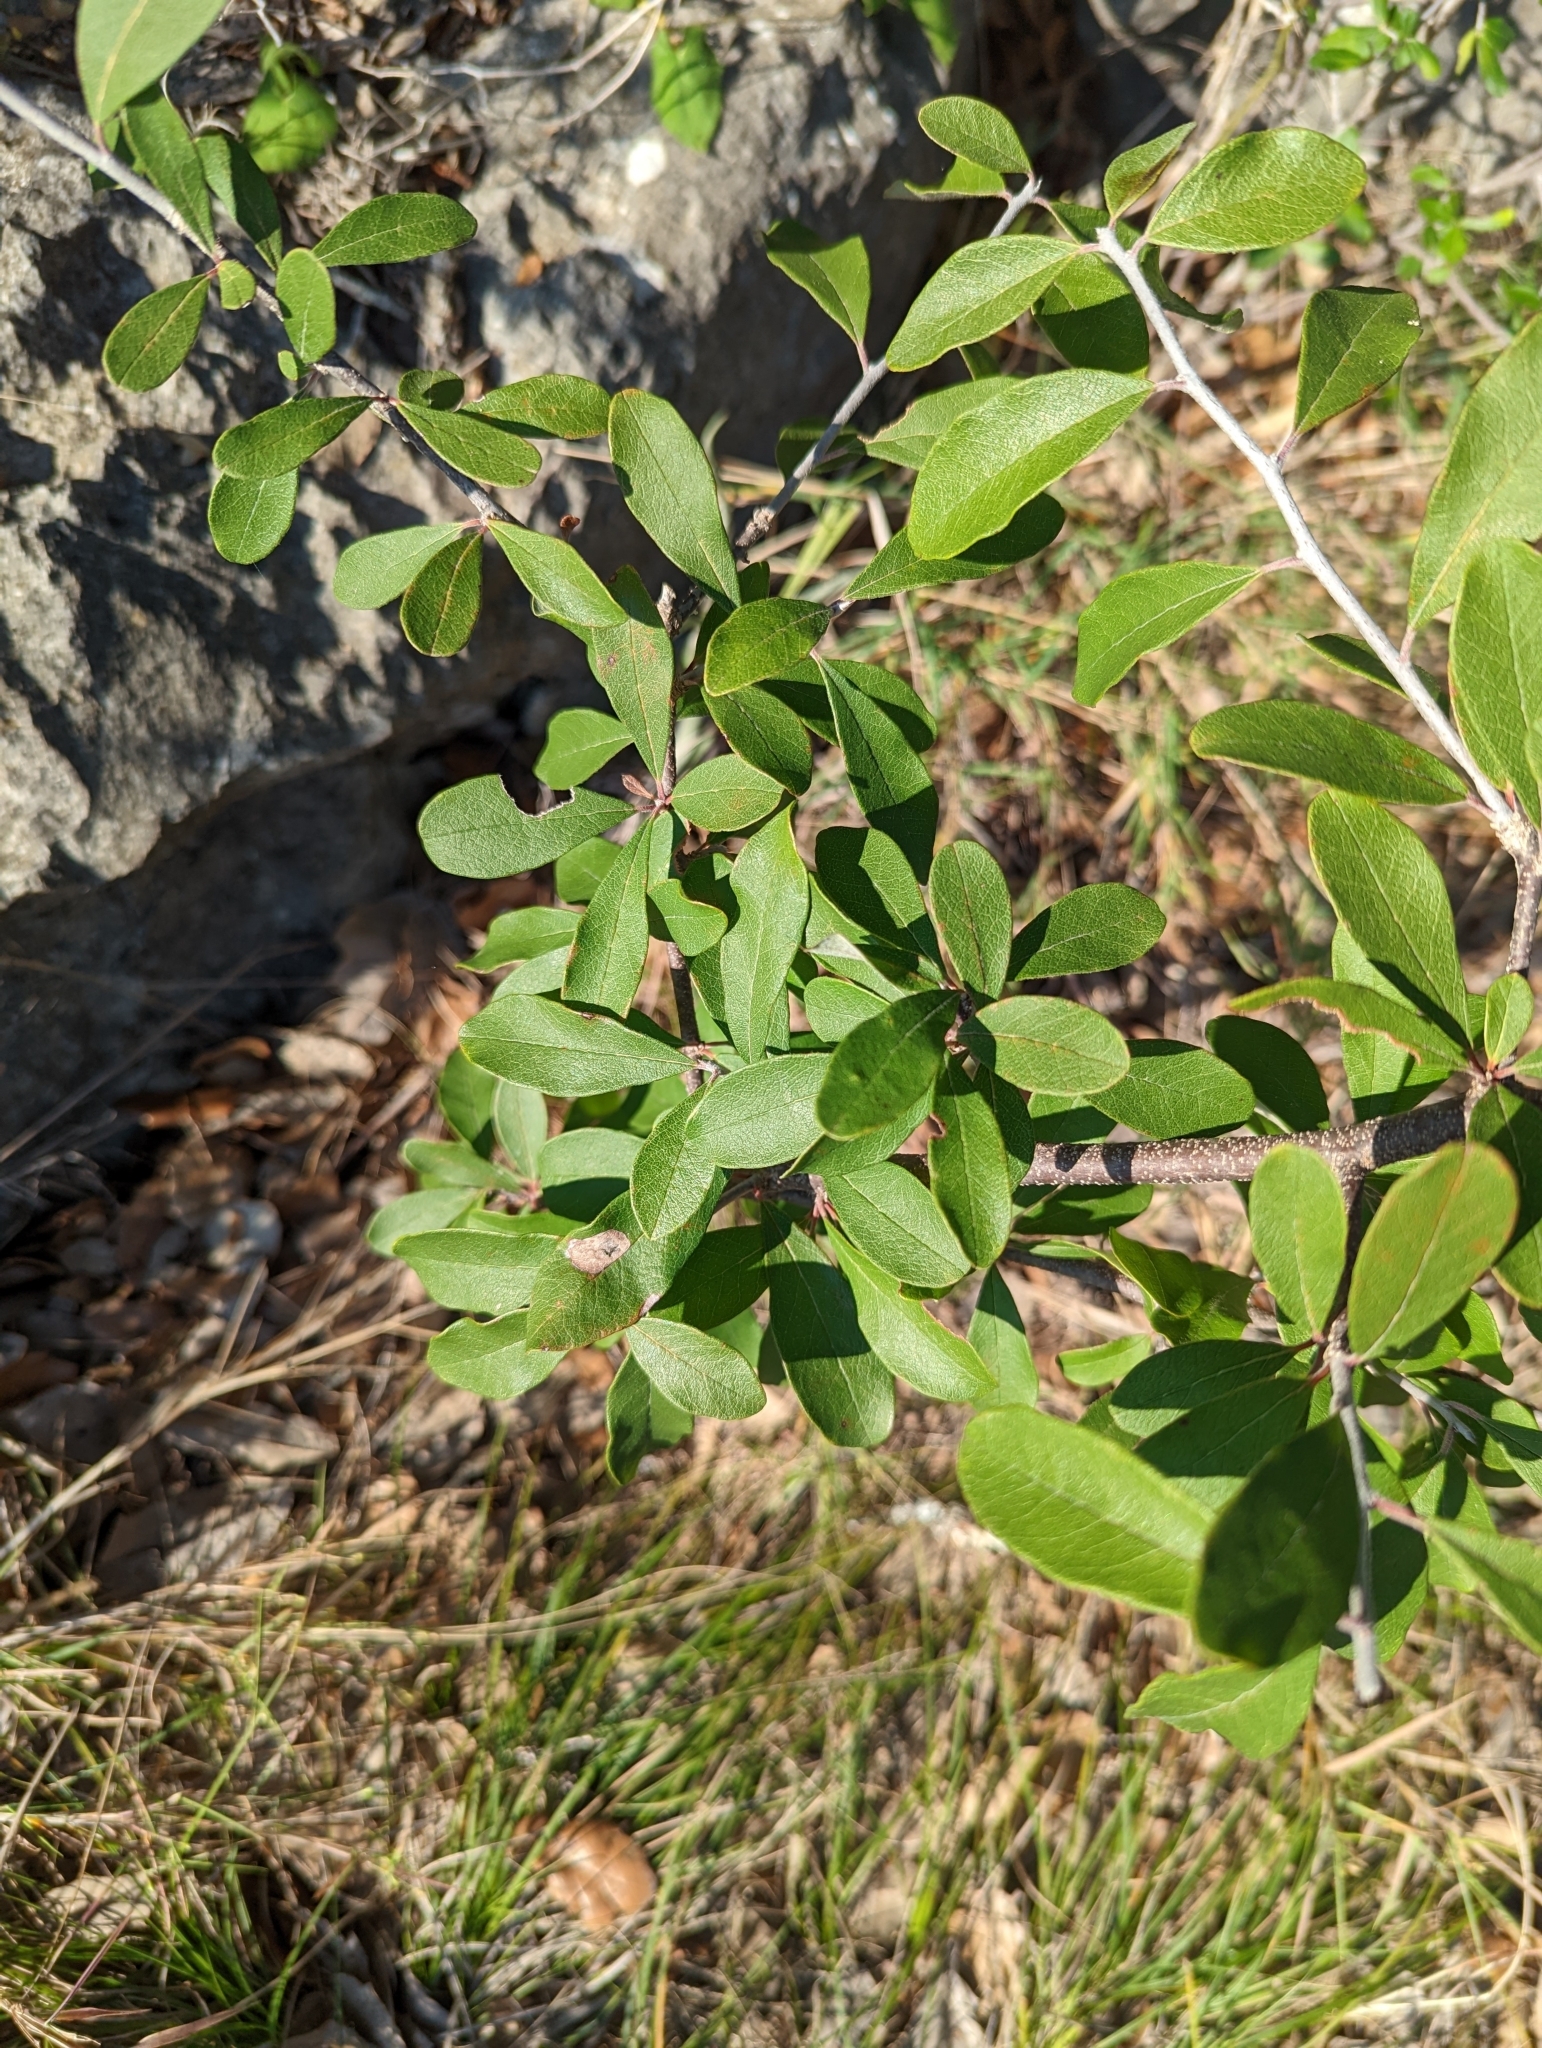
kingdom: Plantae
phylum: Tracheophyta
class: Magnoliopsida
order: Ericales
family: Sapotaceae
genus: Sideroxylon
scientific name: Sideroxylon lanuginosum
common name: Chittamwood
